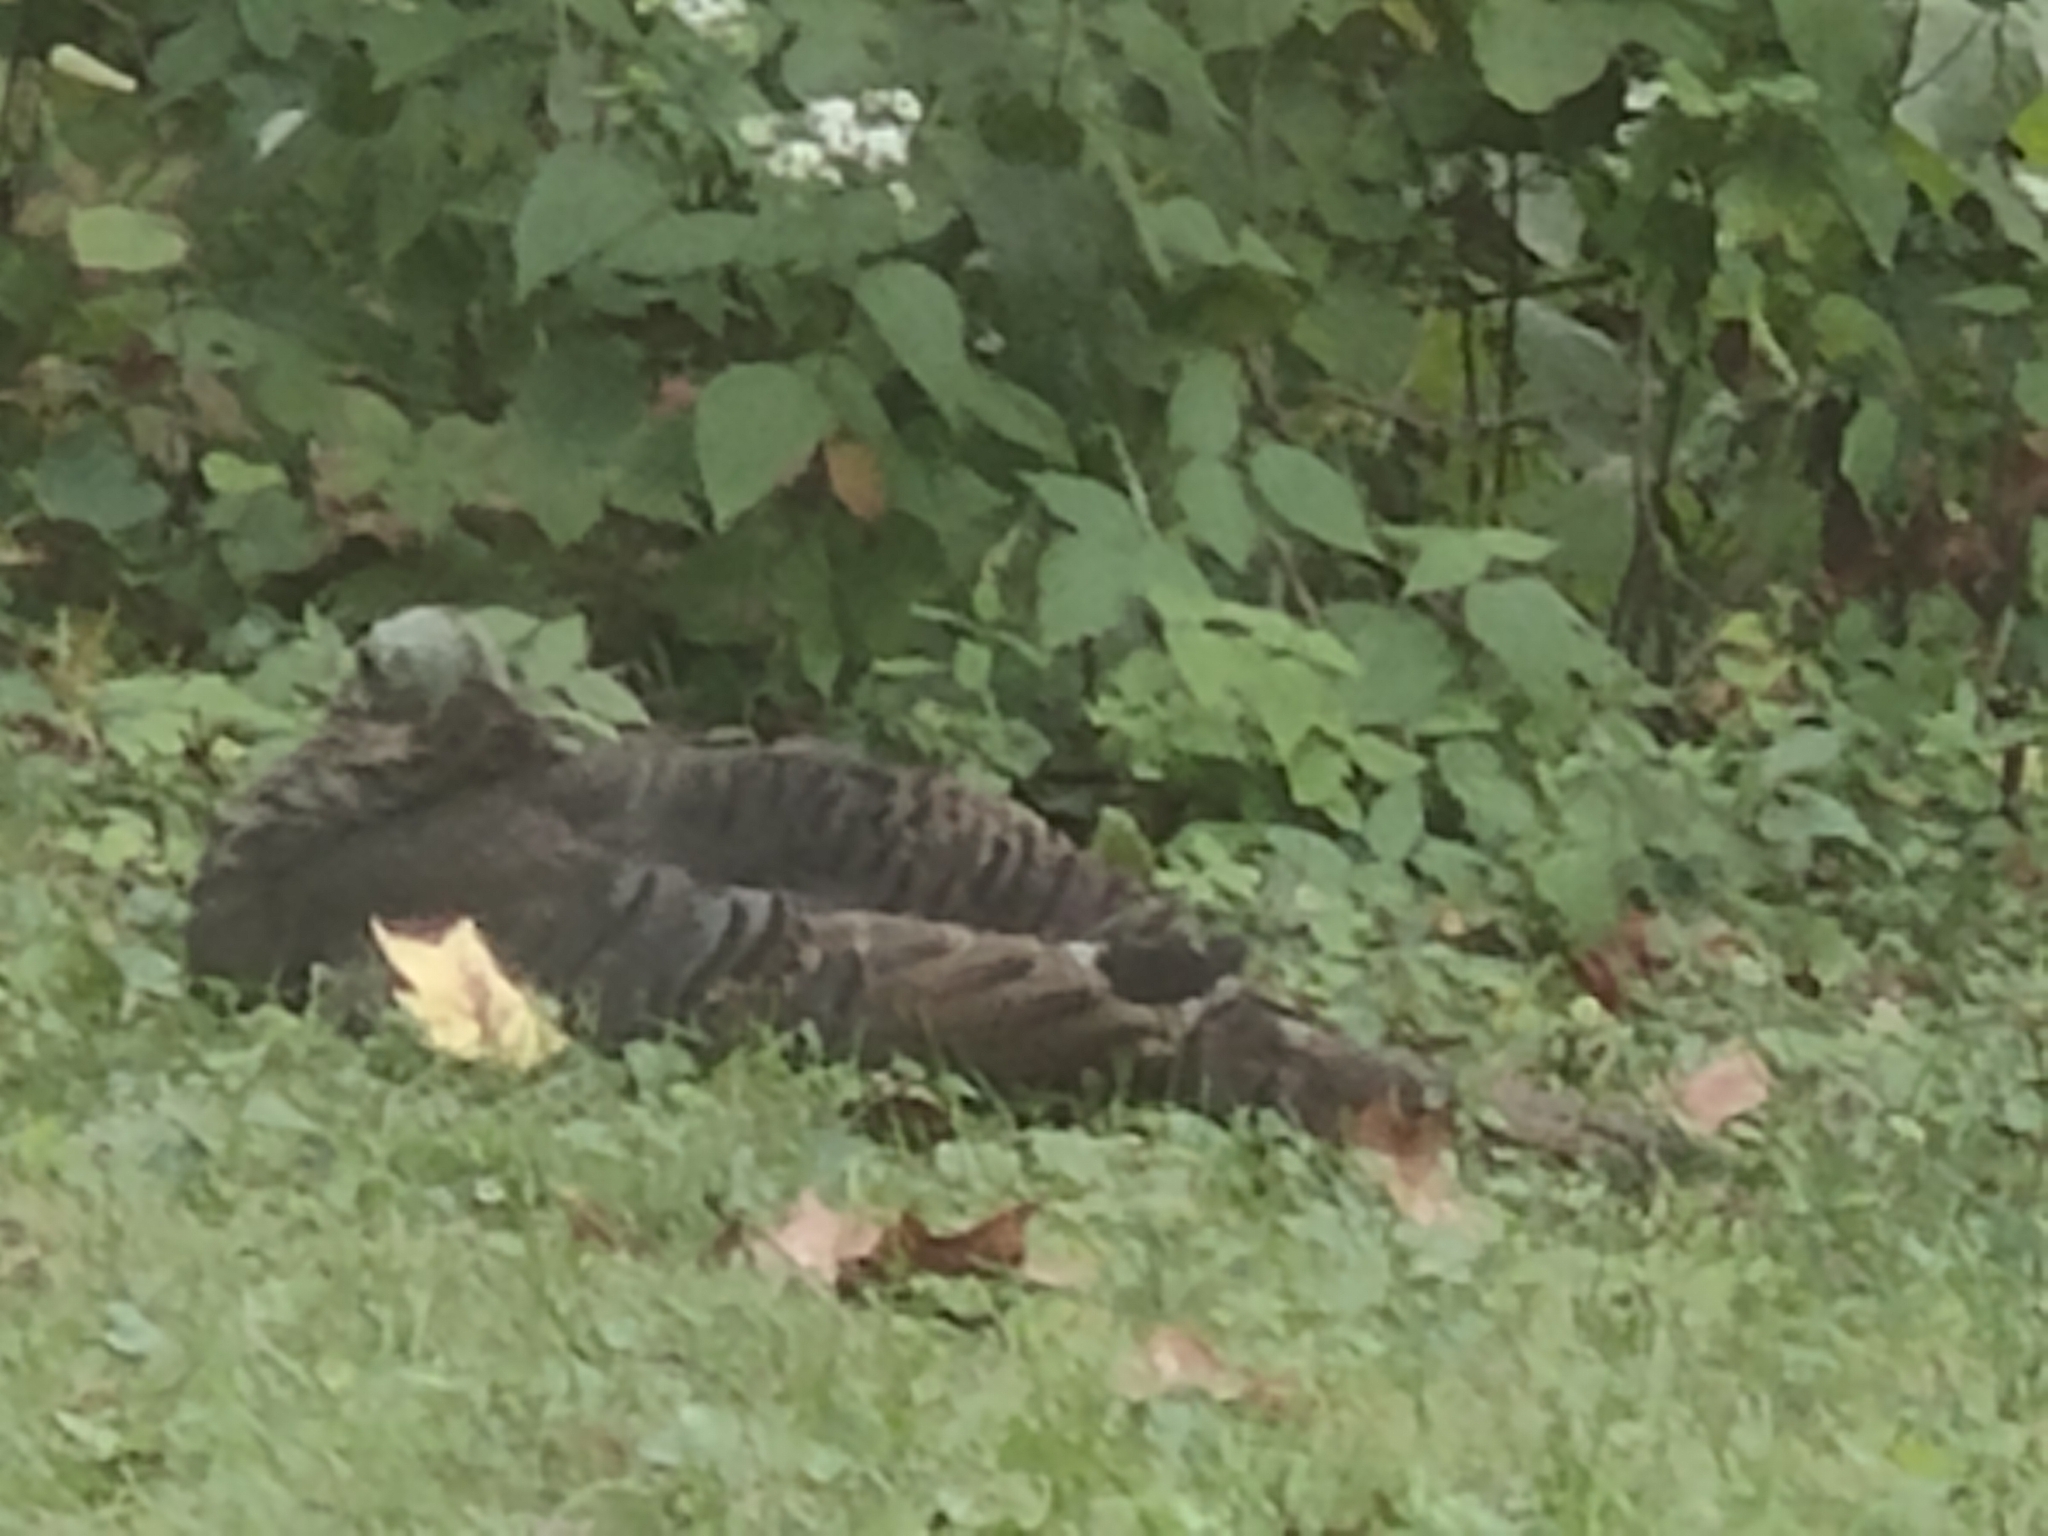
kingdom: Animalia
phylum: Chordata
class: Aves
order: Galliformes
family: Phasianidae
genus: Meleagris
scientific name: Meleagris gallopavo
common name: Wild turkey
